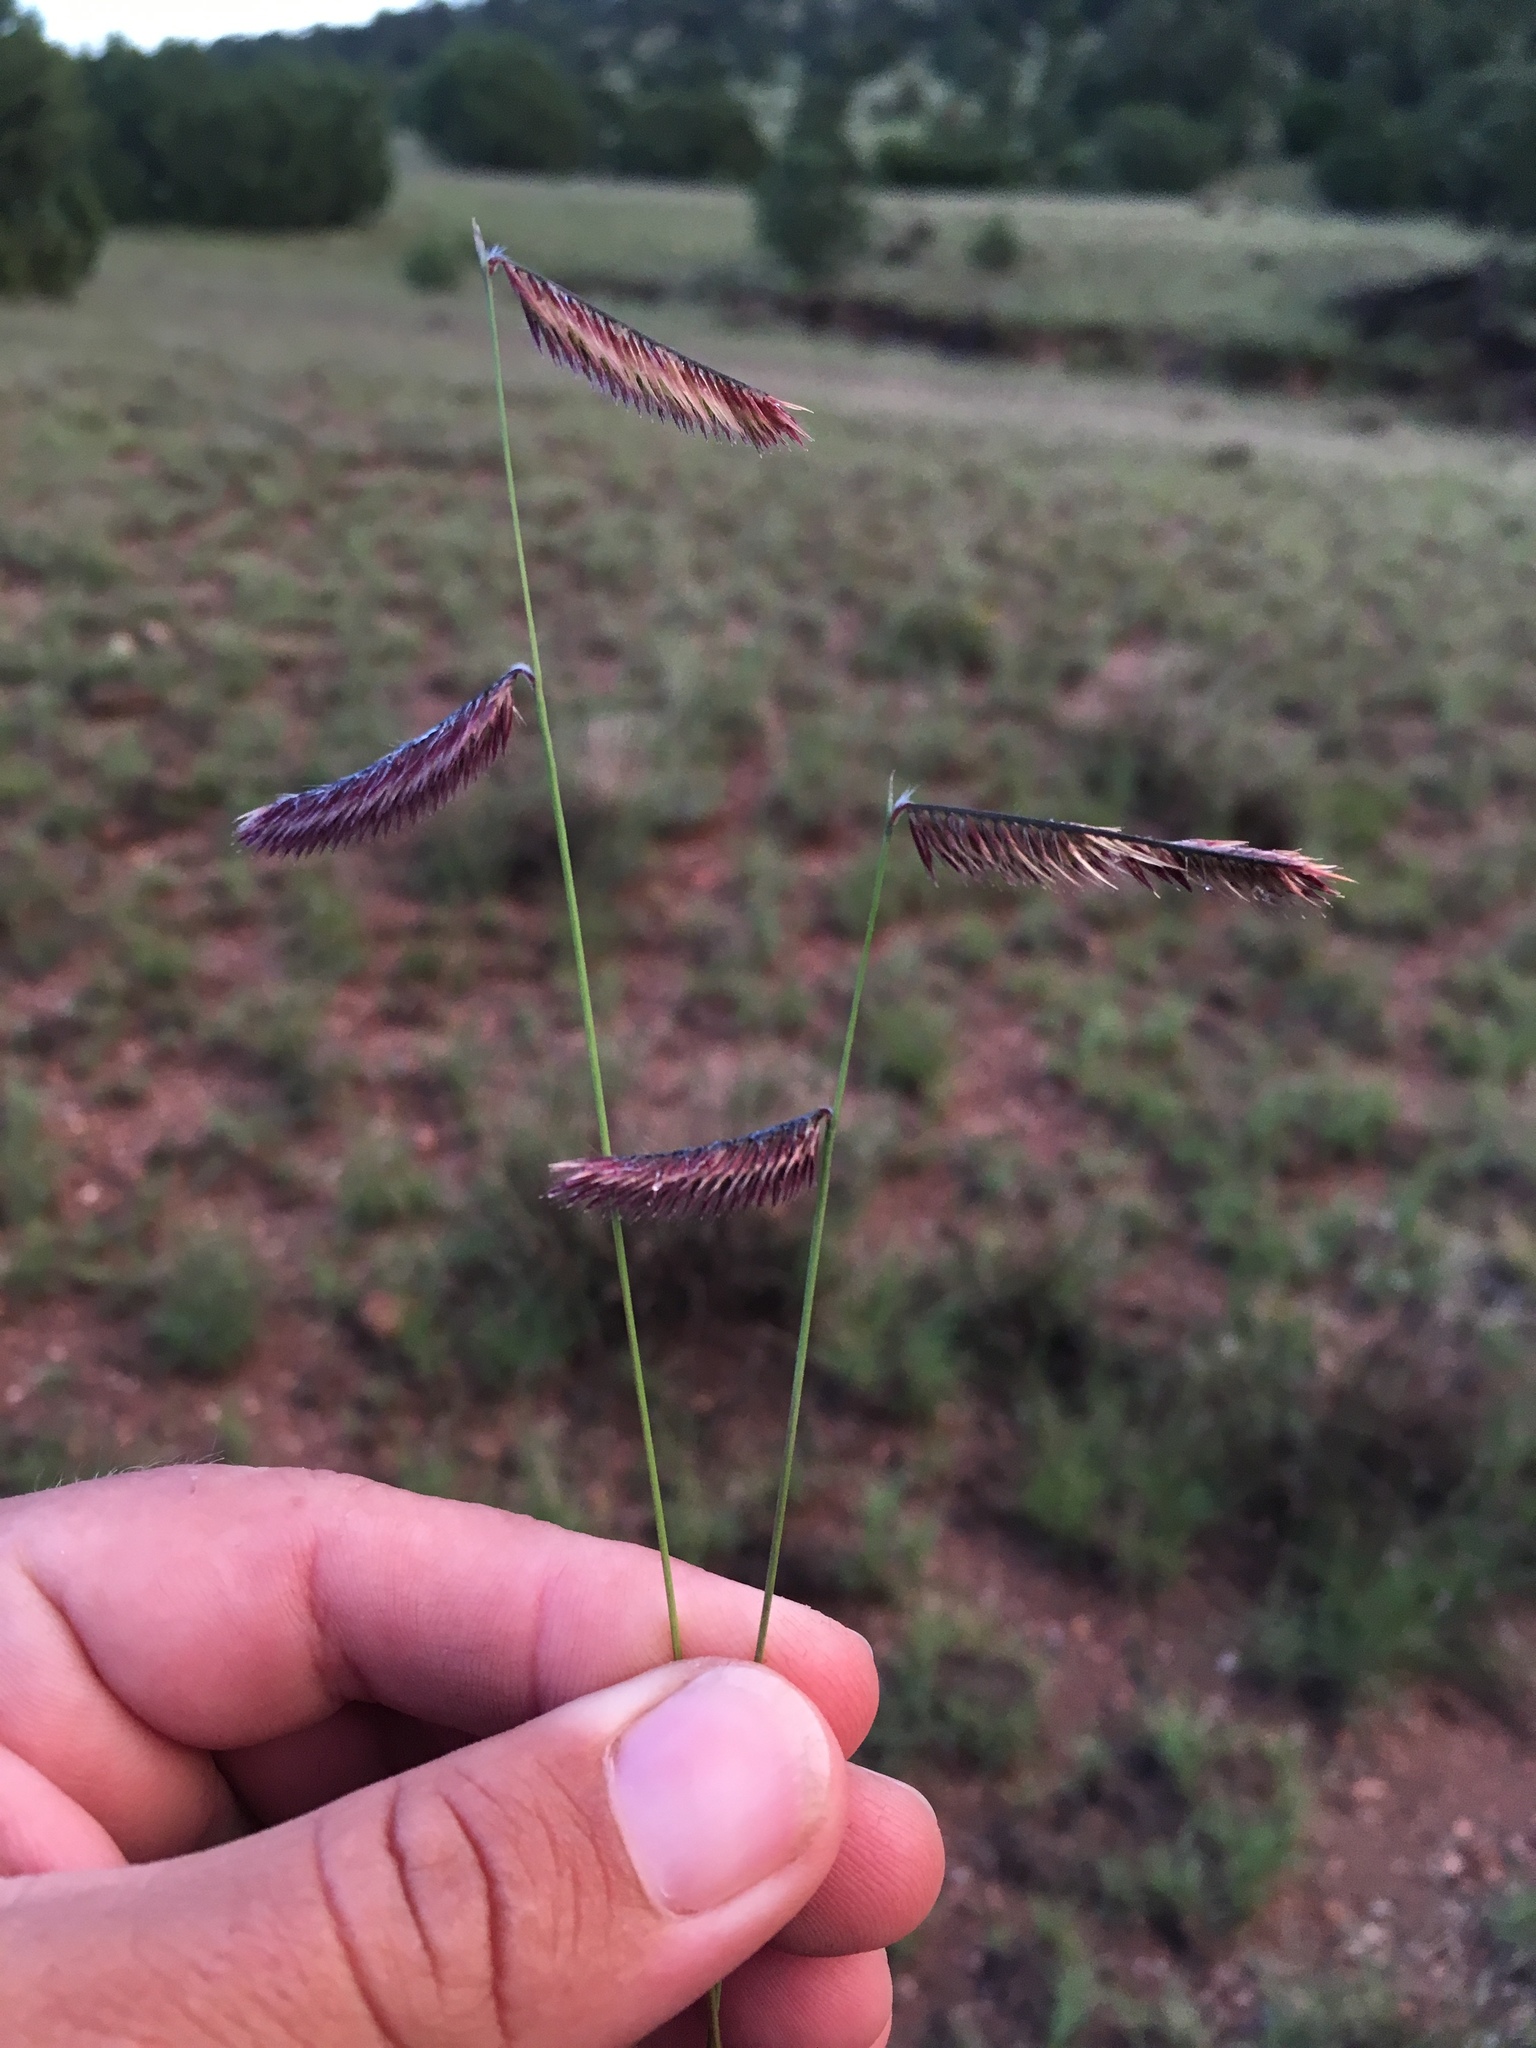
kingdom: Plantae
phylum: Tracheophyta
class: Liliopsida
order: Poales
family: Poaceae
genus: Bouteloua
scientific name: Bouteloua gracilis
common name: Blue grama
